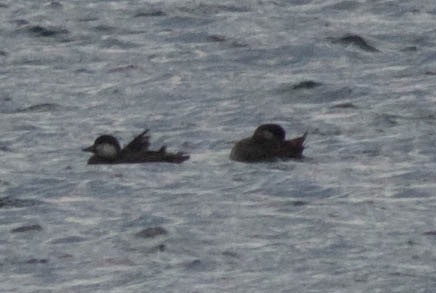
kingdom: Animalia
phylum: Chordata
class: Aves
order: Anseriformes
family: Anatidae
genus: Melanitta
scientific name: Melanitta americana
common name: Black scoter
